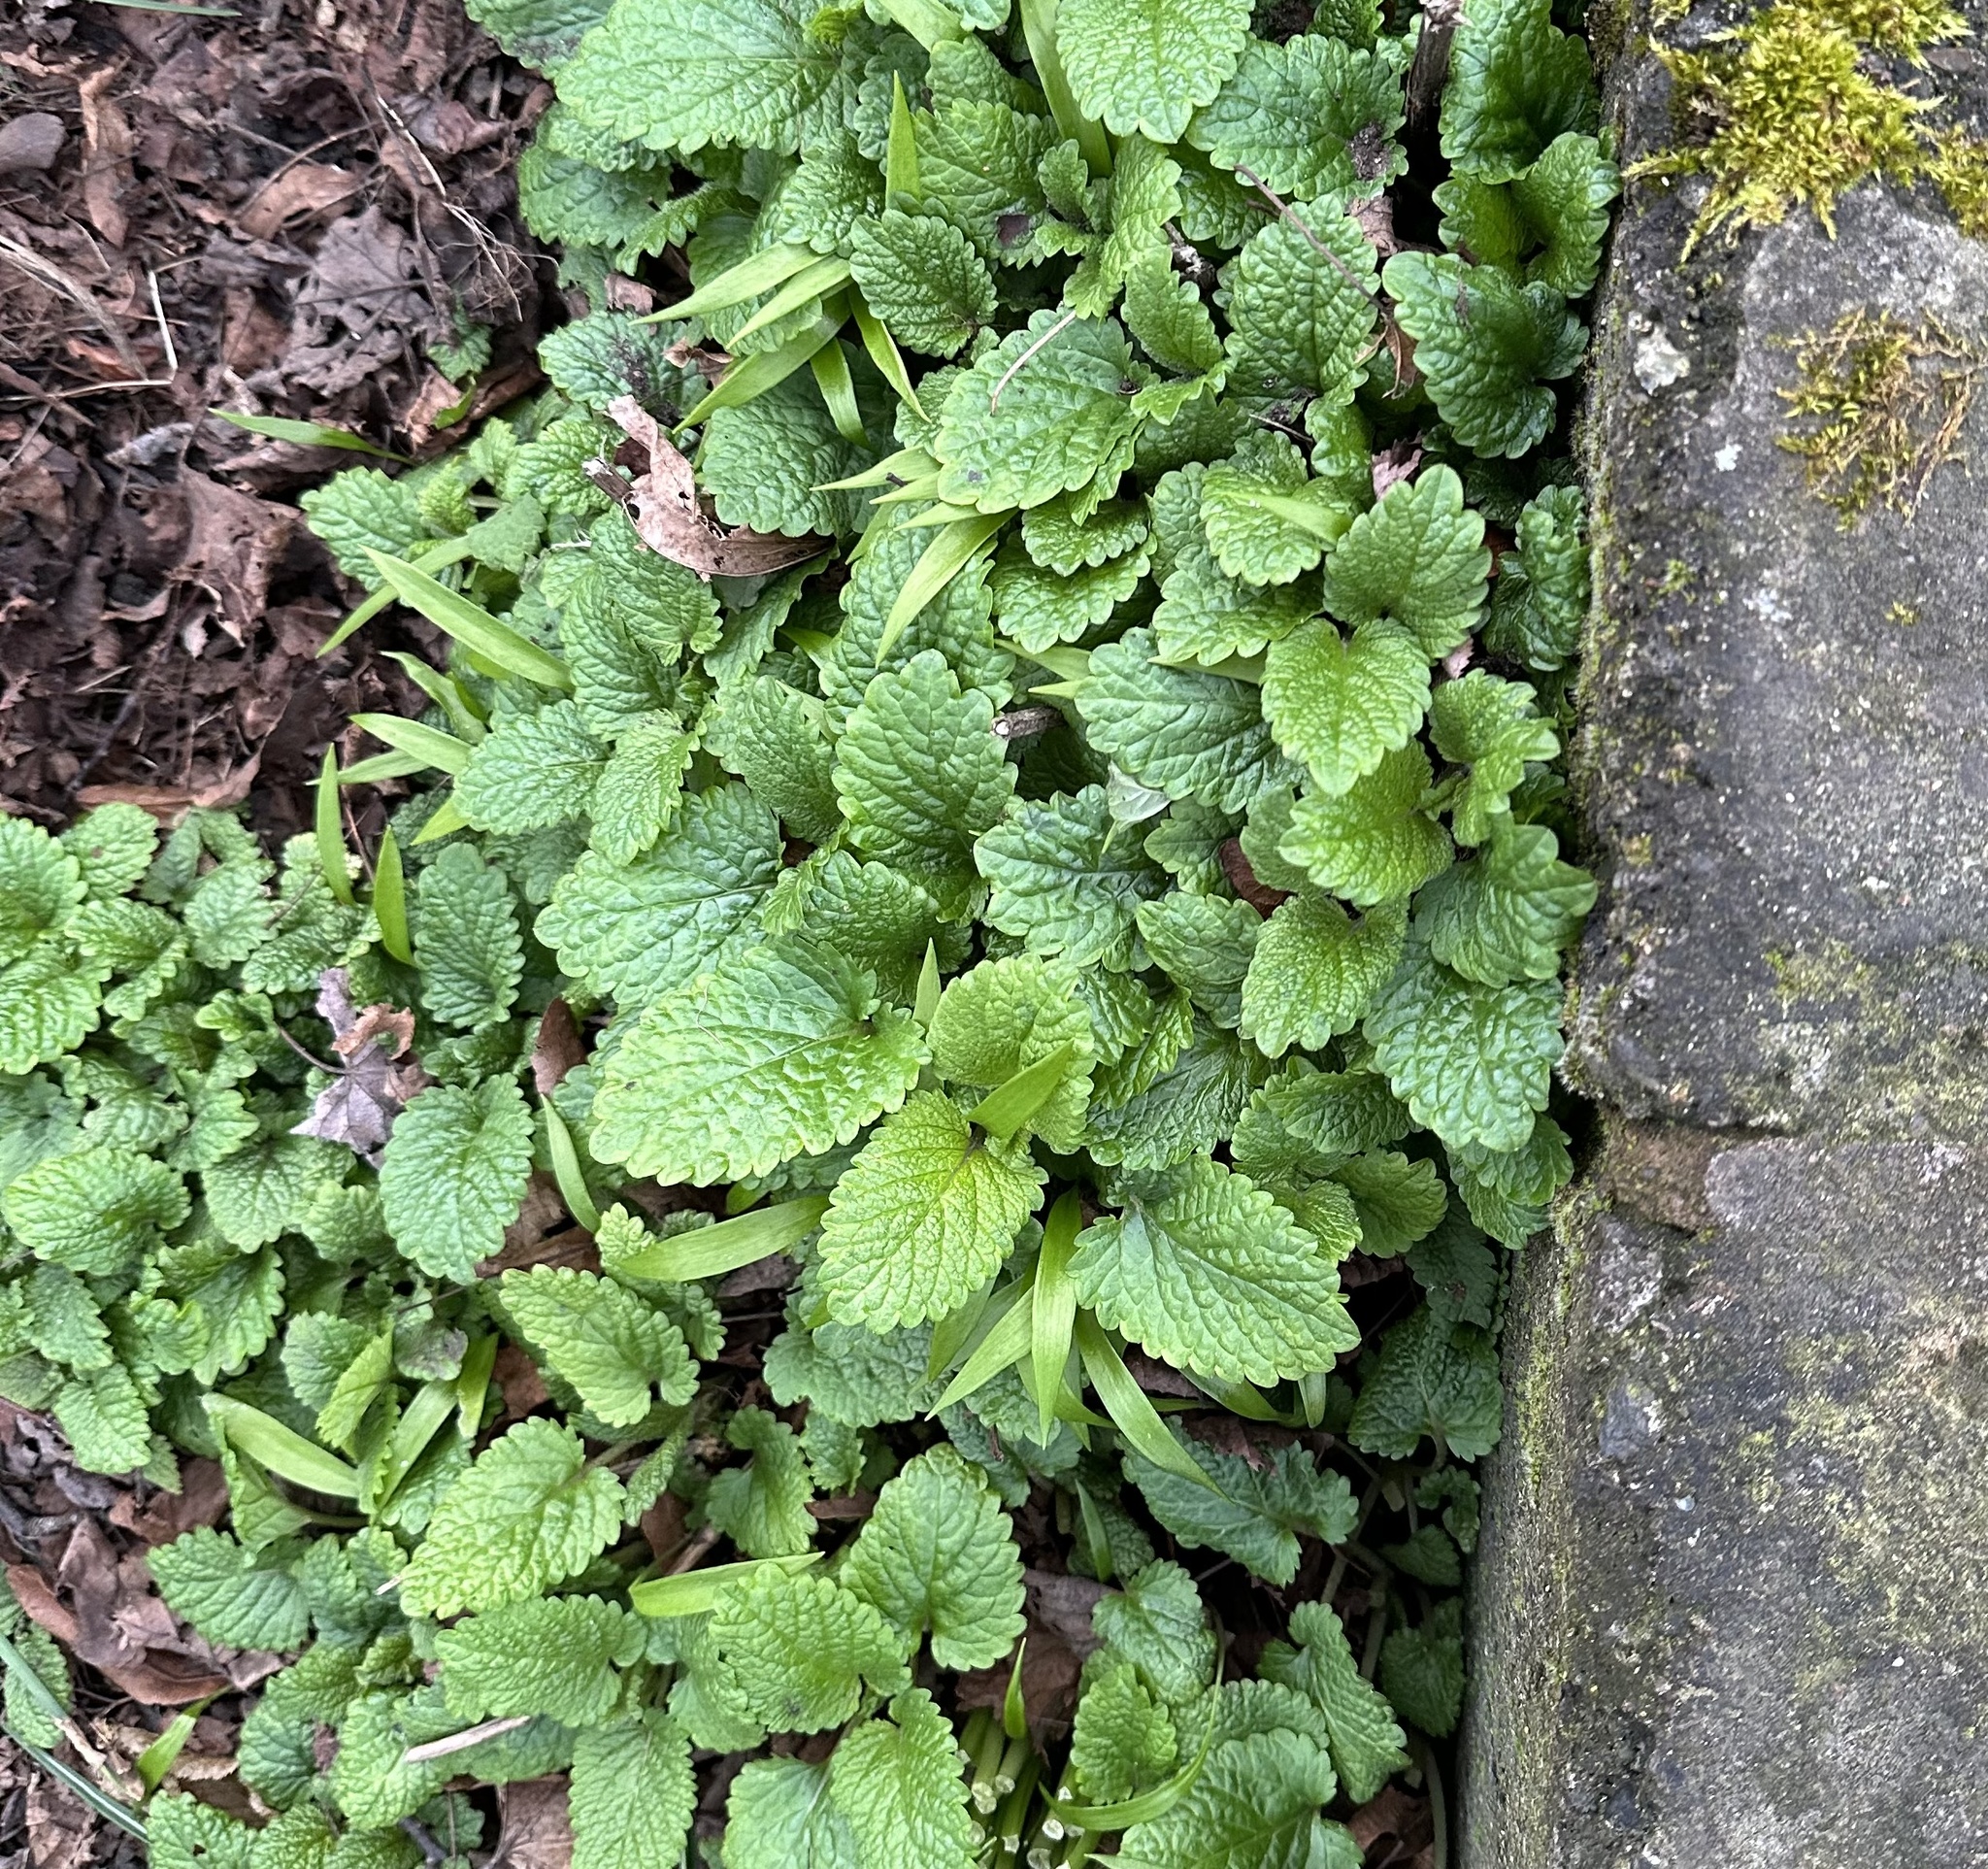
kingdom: Plantae
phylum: Tracheophyta
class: Magnoliopsida
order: Lamiales
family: Lamiaceae
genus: Melissa
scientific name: Melissa officinalis
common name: Balm
